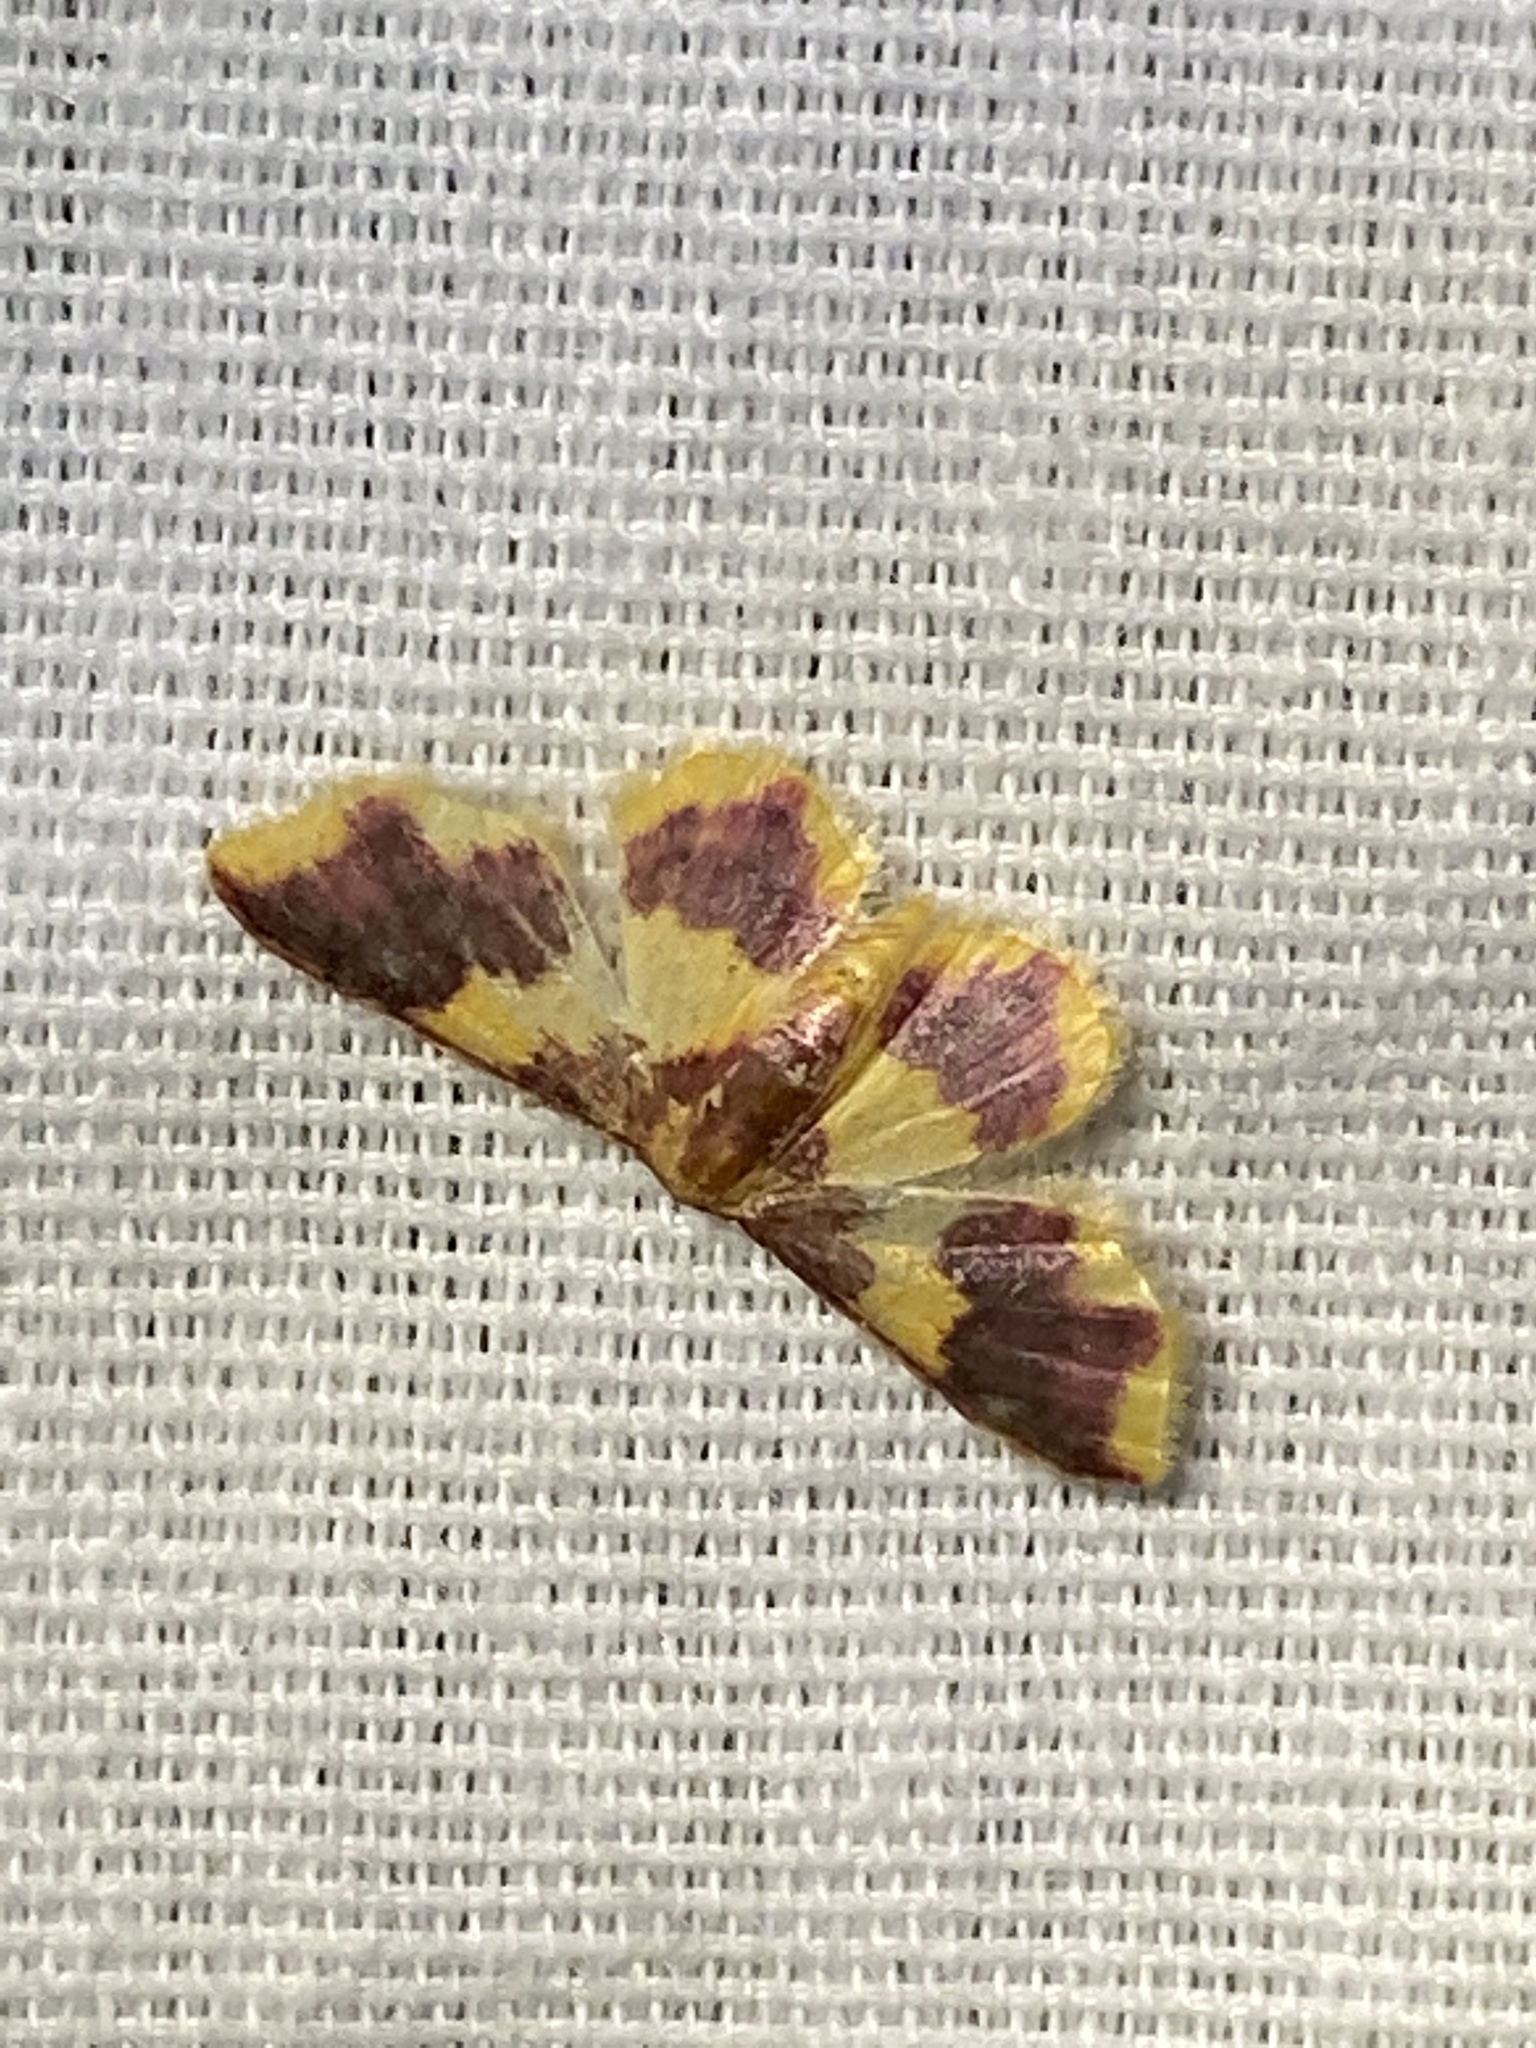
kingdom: Animalia
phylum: Arthropoda
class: Insecta
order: Lepidoptera
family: Geometridae
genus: Lophosis
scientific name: Lophosis labeculata
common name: Stained lophosis moth
